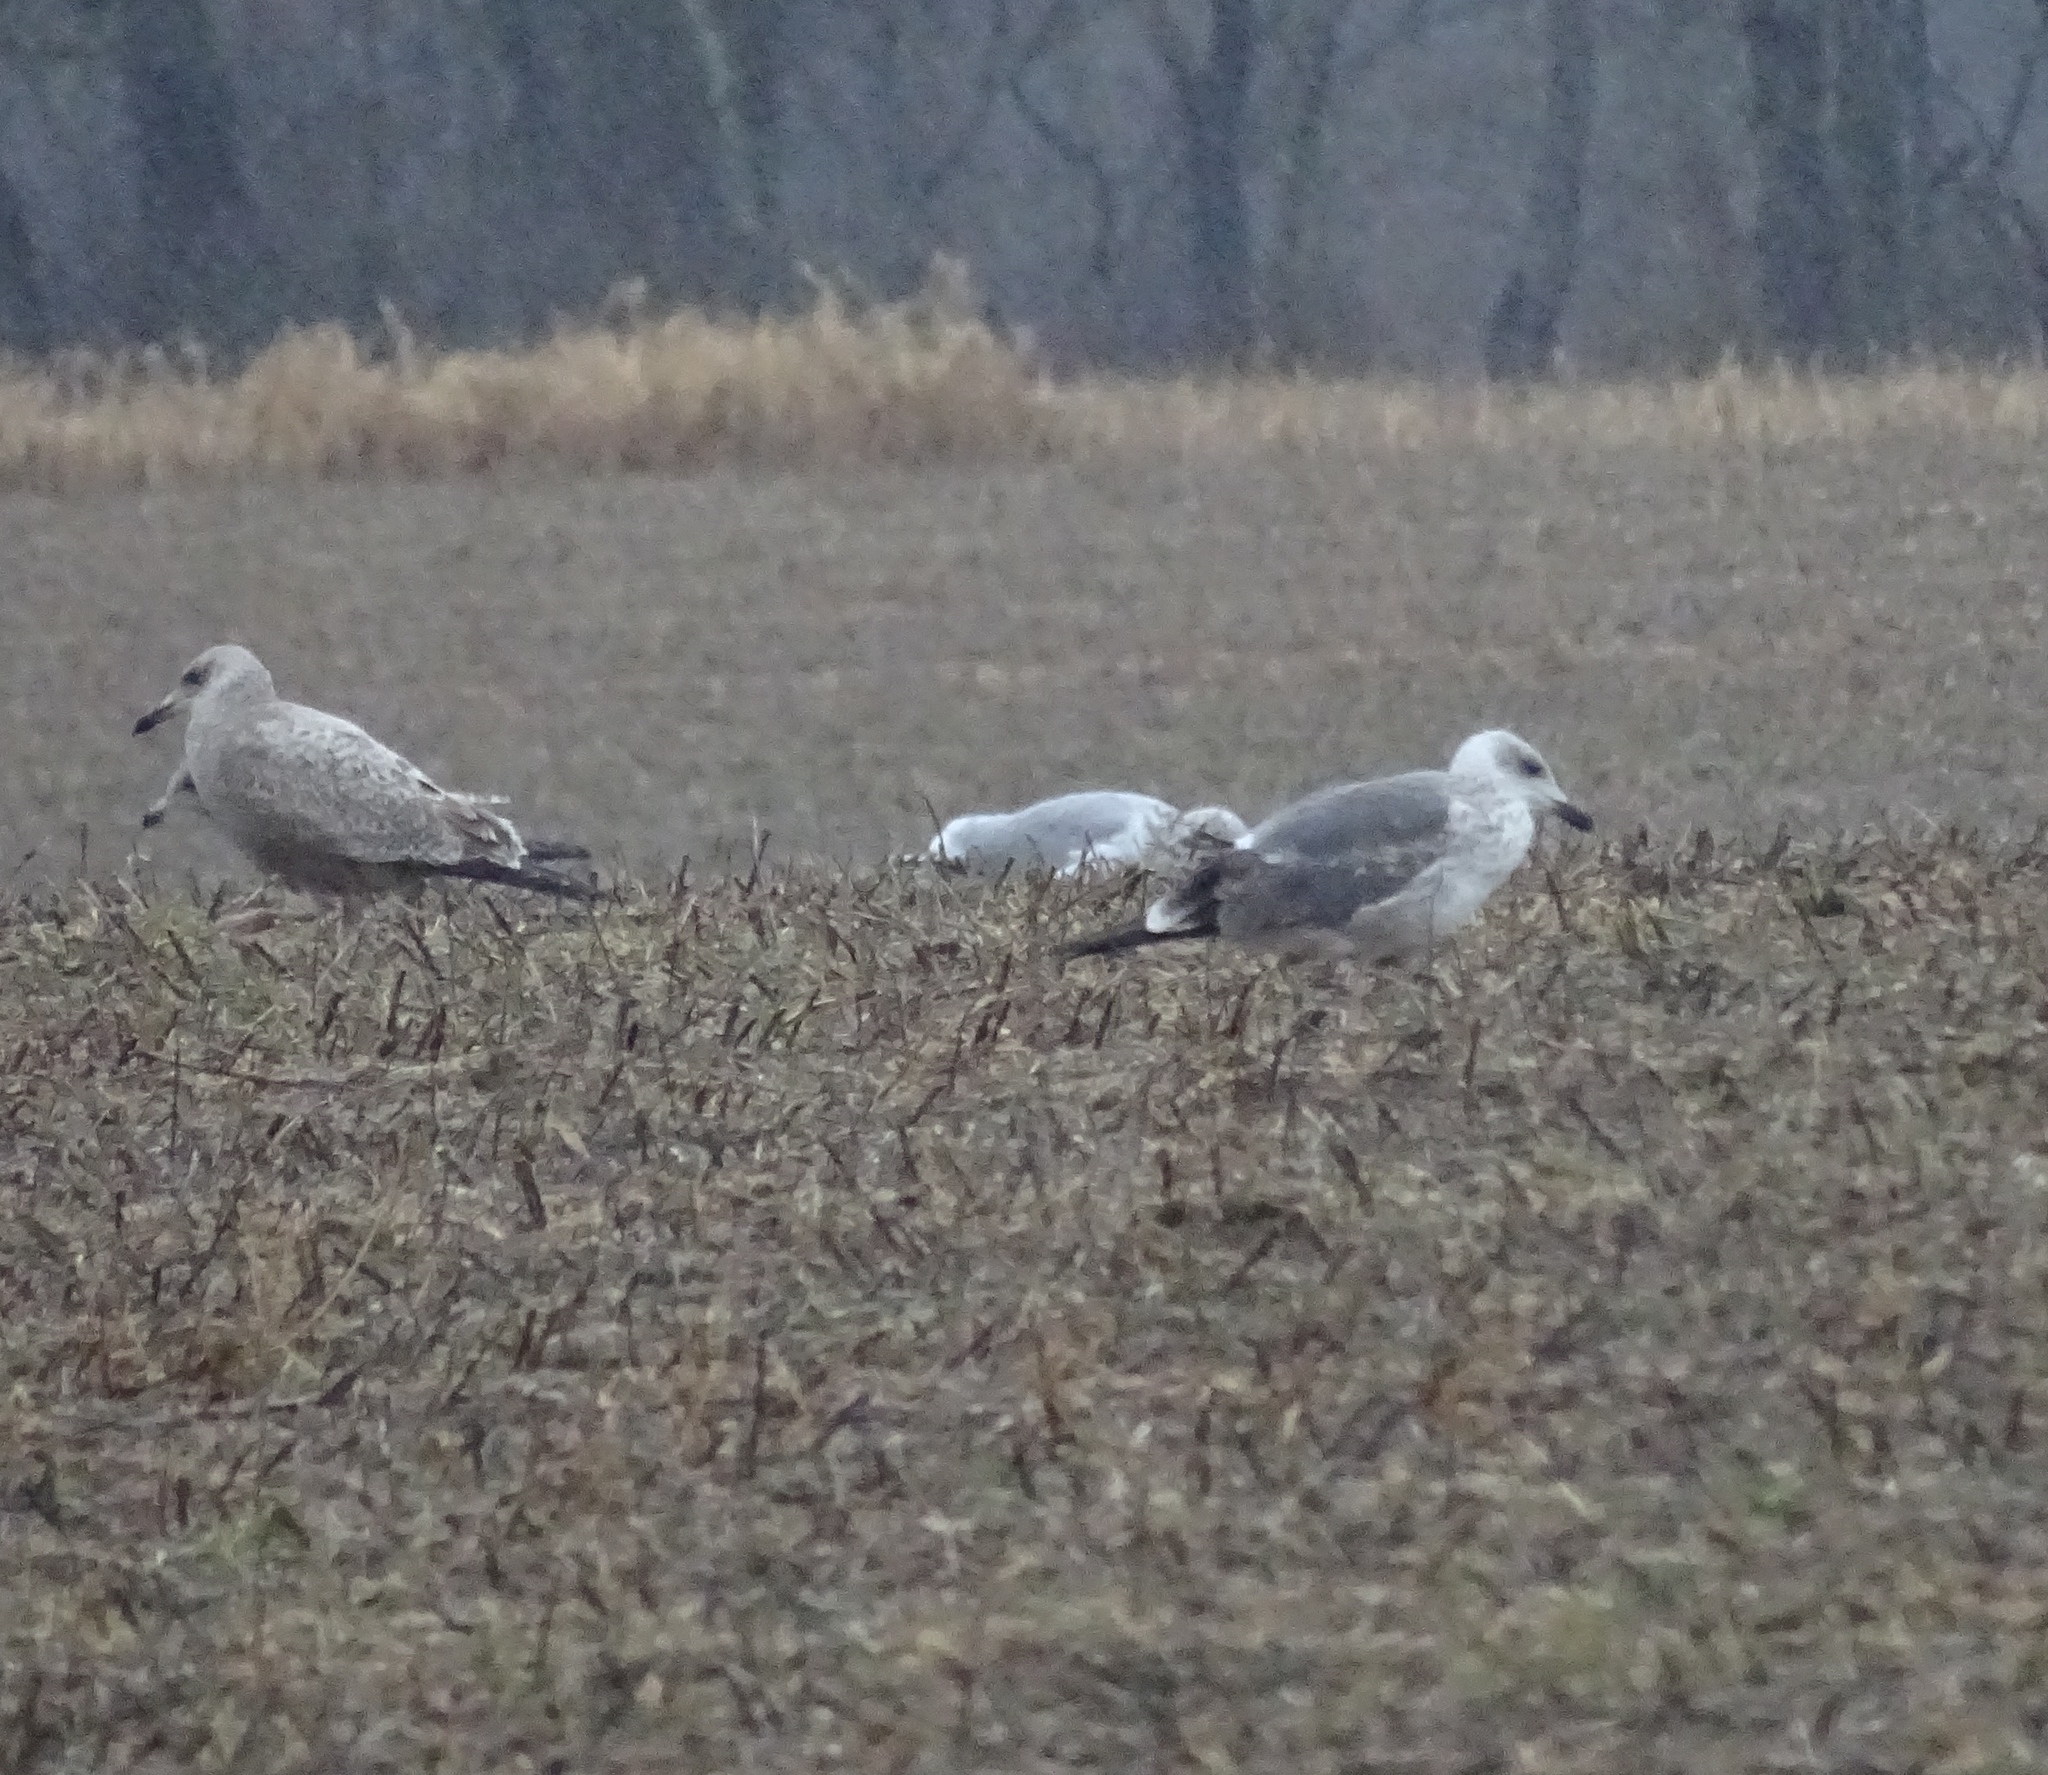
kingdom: Animalia
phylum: Chordata
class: Aves
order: Charadriiformes
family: Laridae
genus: Larus
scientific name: Larus fuscus
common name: Lesser black-backed gull
